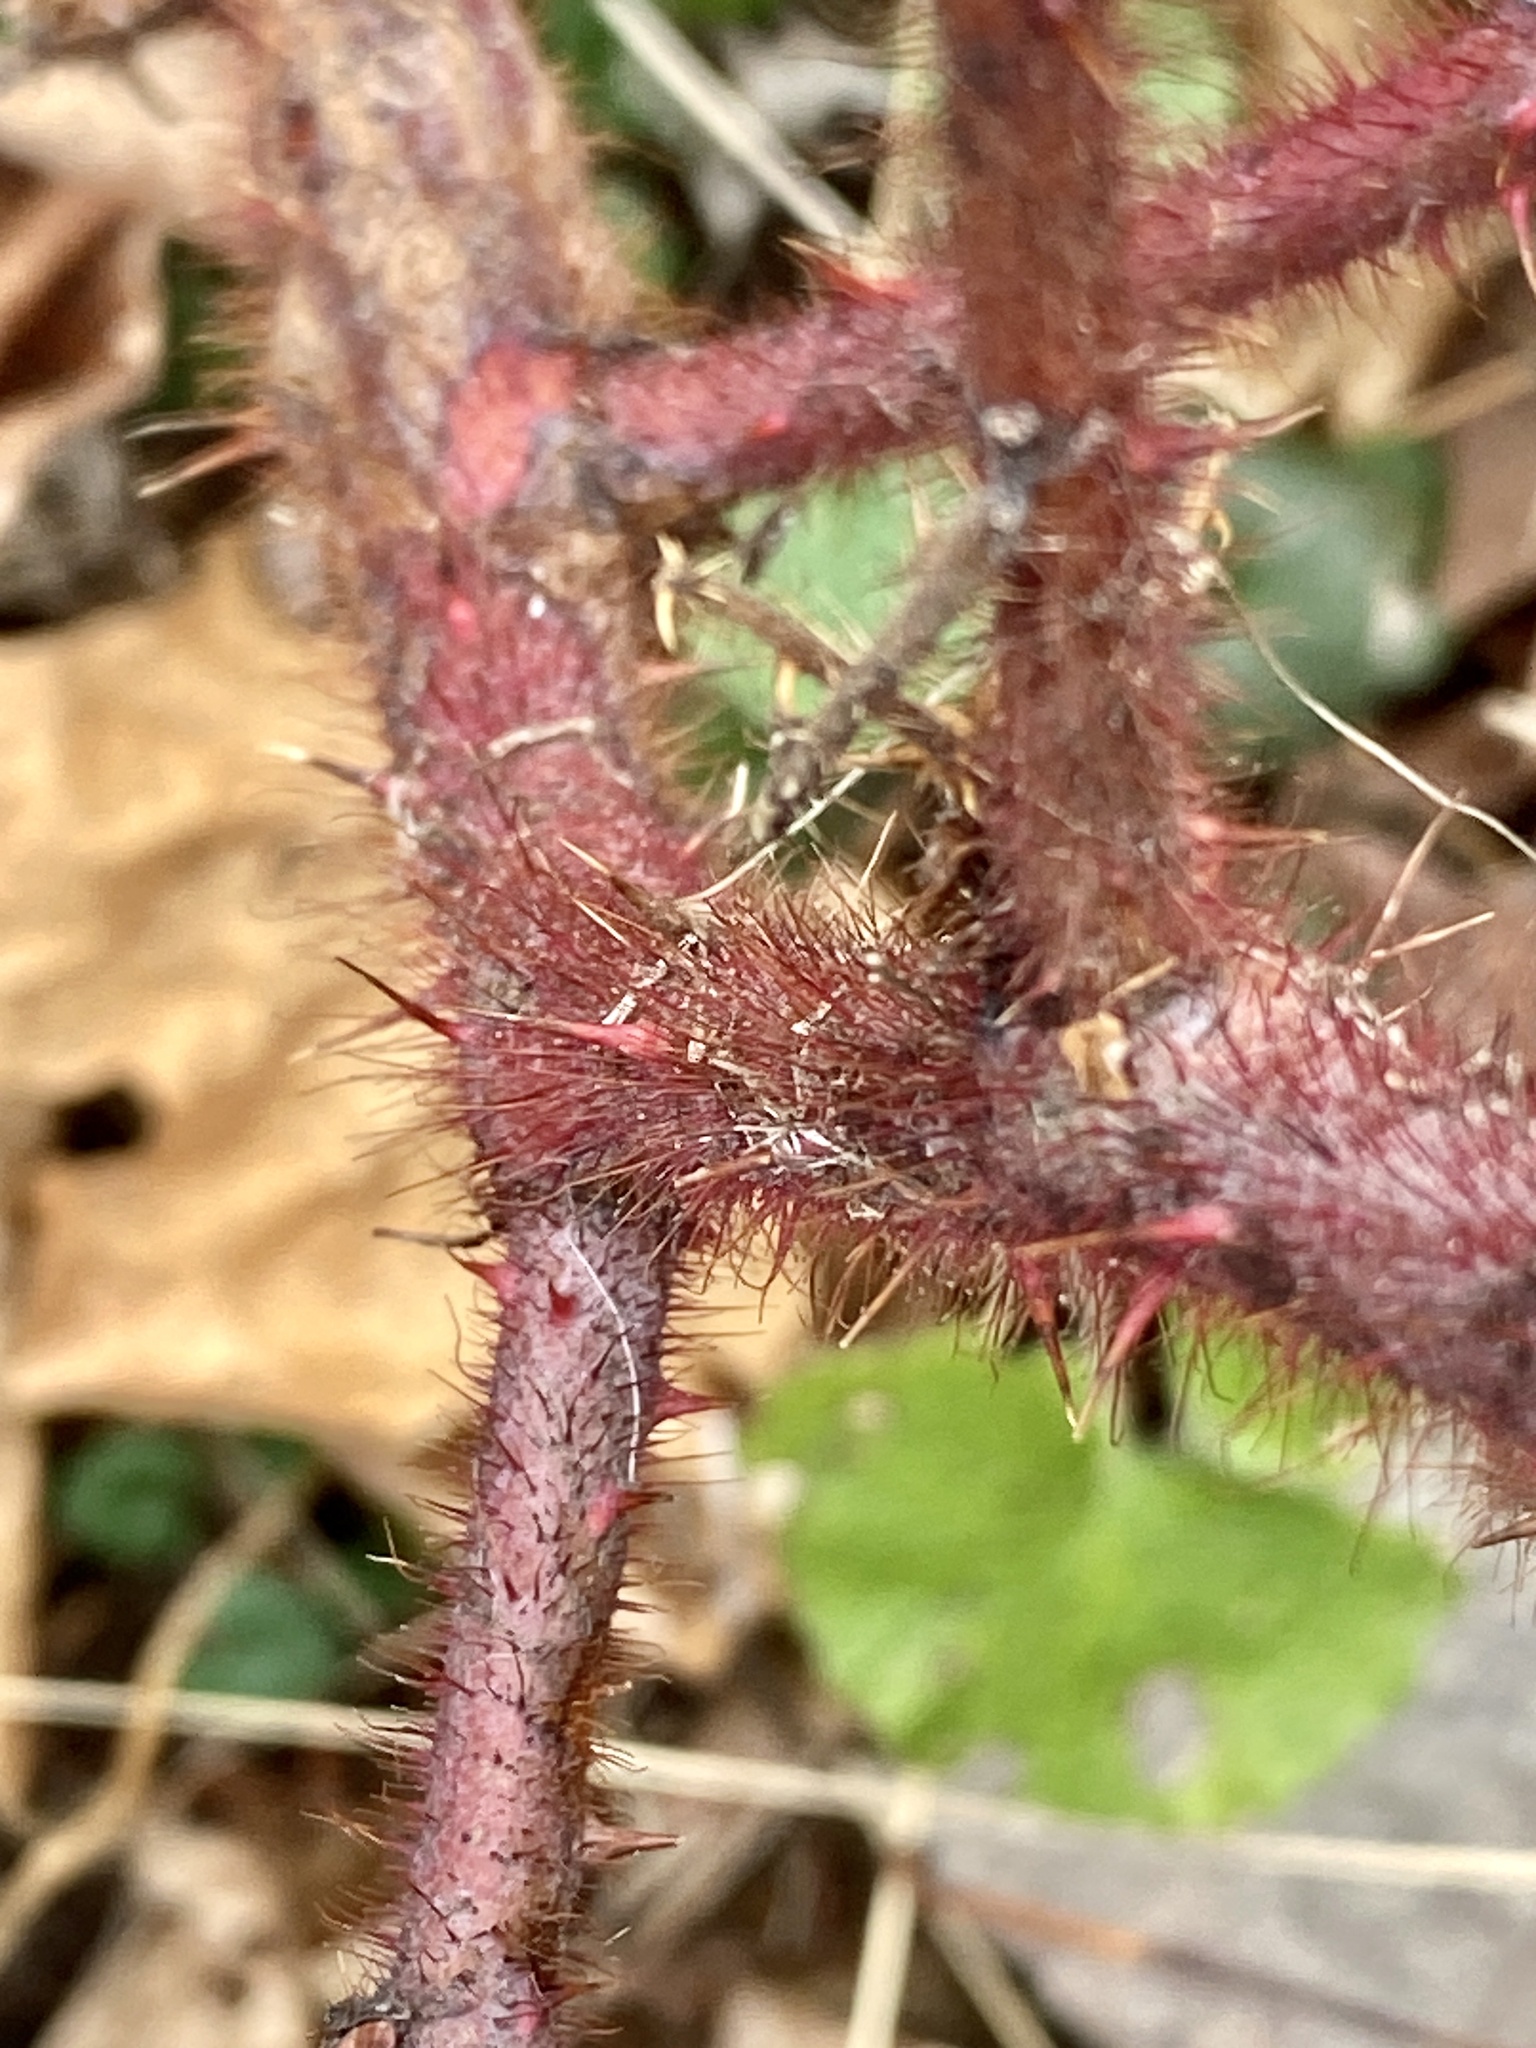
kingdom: Plantae
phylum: Tracheophyta
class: Magnoliopsida
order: Rosales
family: Rosaceae
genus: Rubus
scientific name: Rubus phoenicolasius
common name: Japanese wineberry
